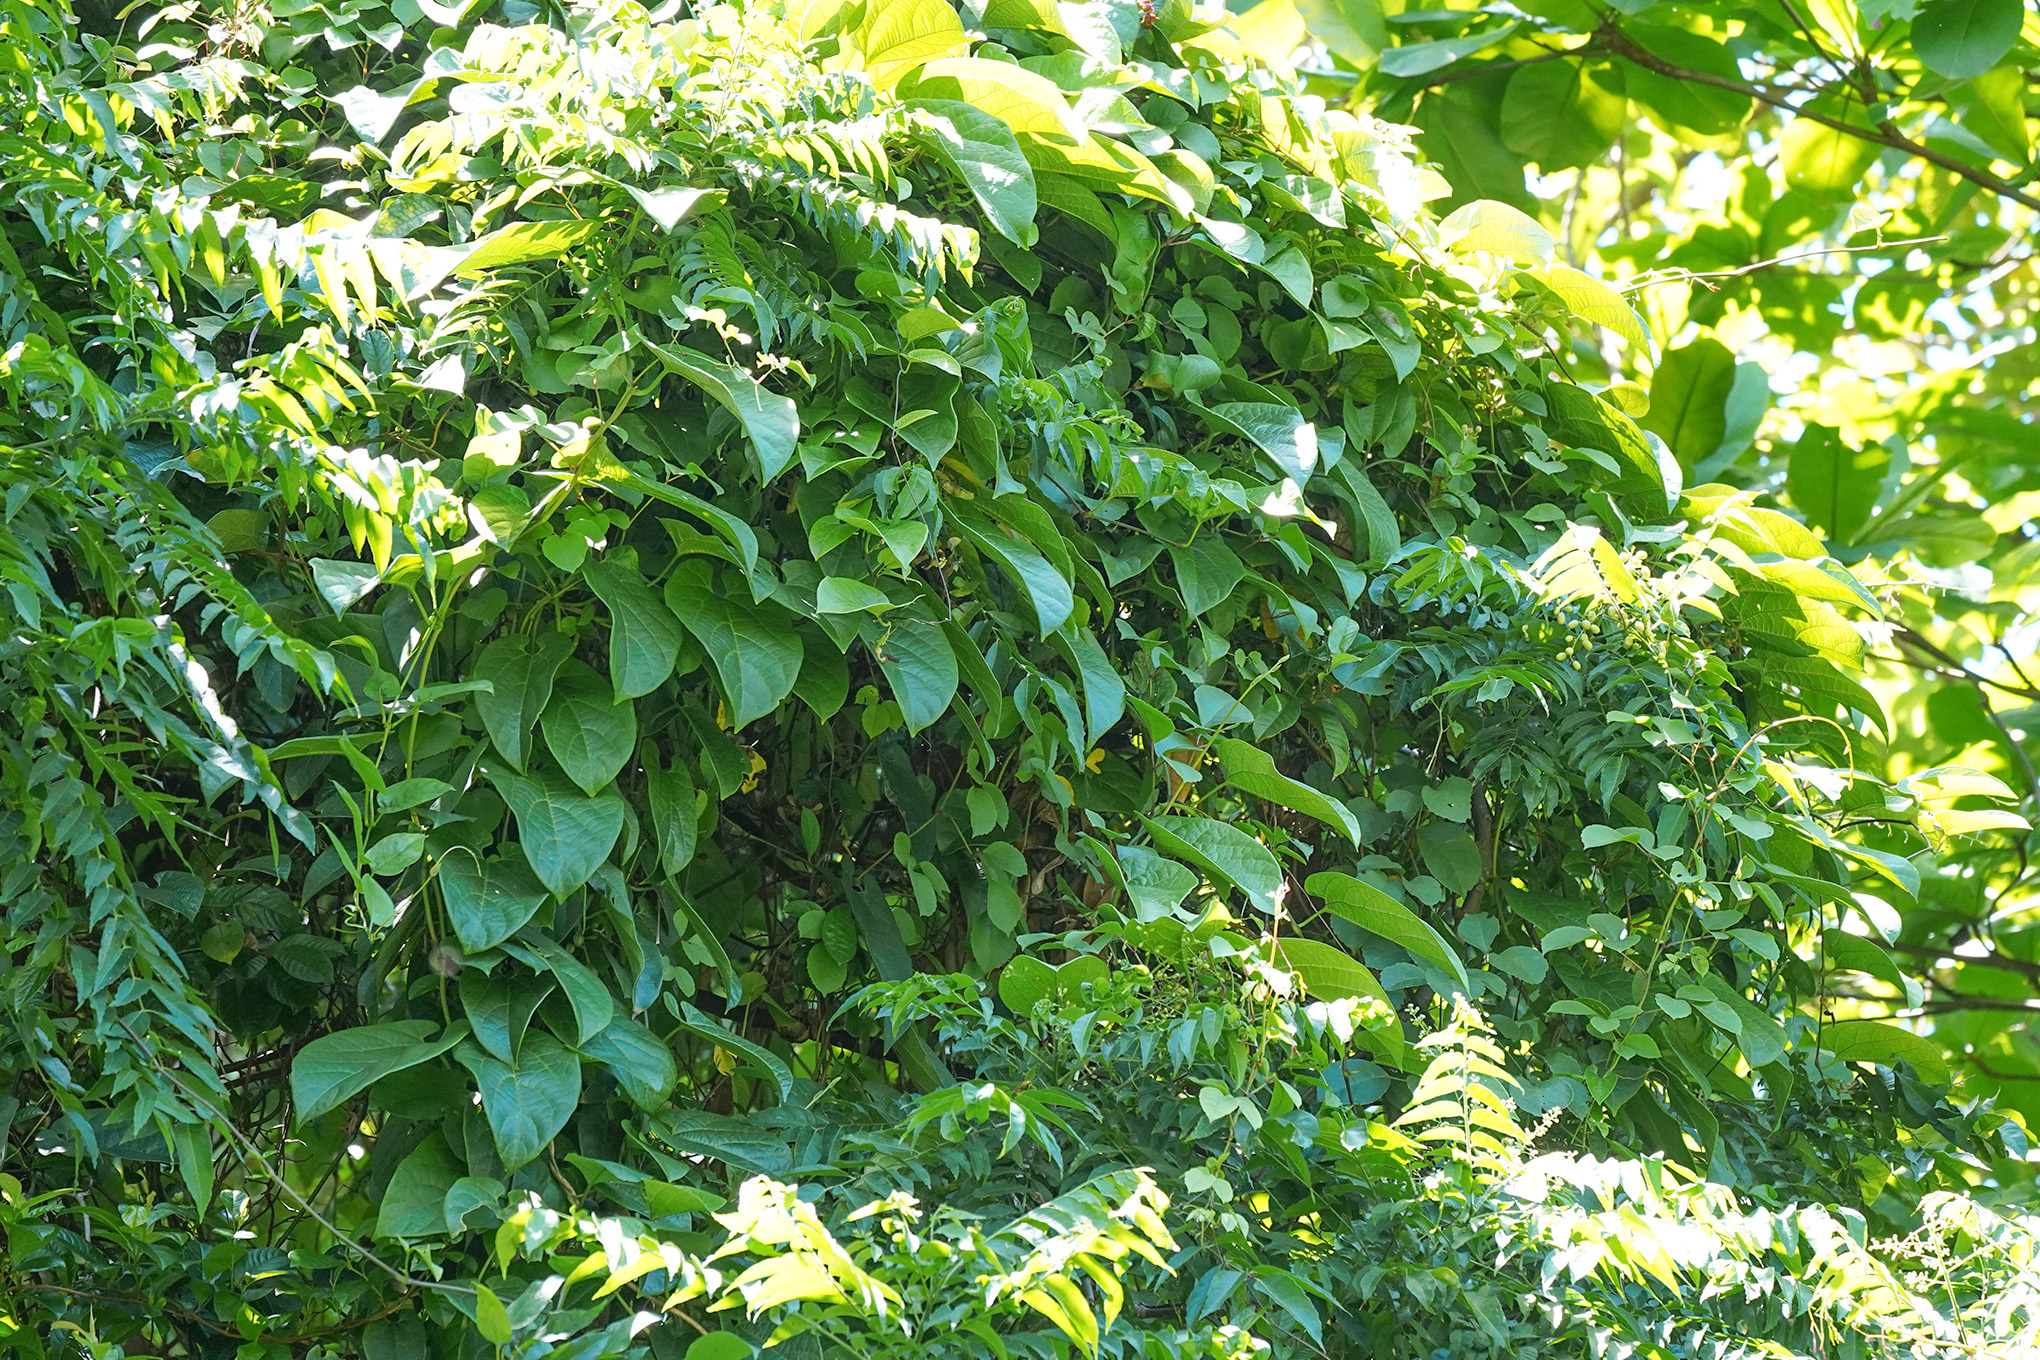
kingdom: Plantae
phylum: Tracheophyta
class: Magnoliopsida
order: Piperales
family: Aristolochiaceae
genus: Aristolochia
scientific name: Aristolochia acuminata
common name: Indian birthwort
